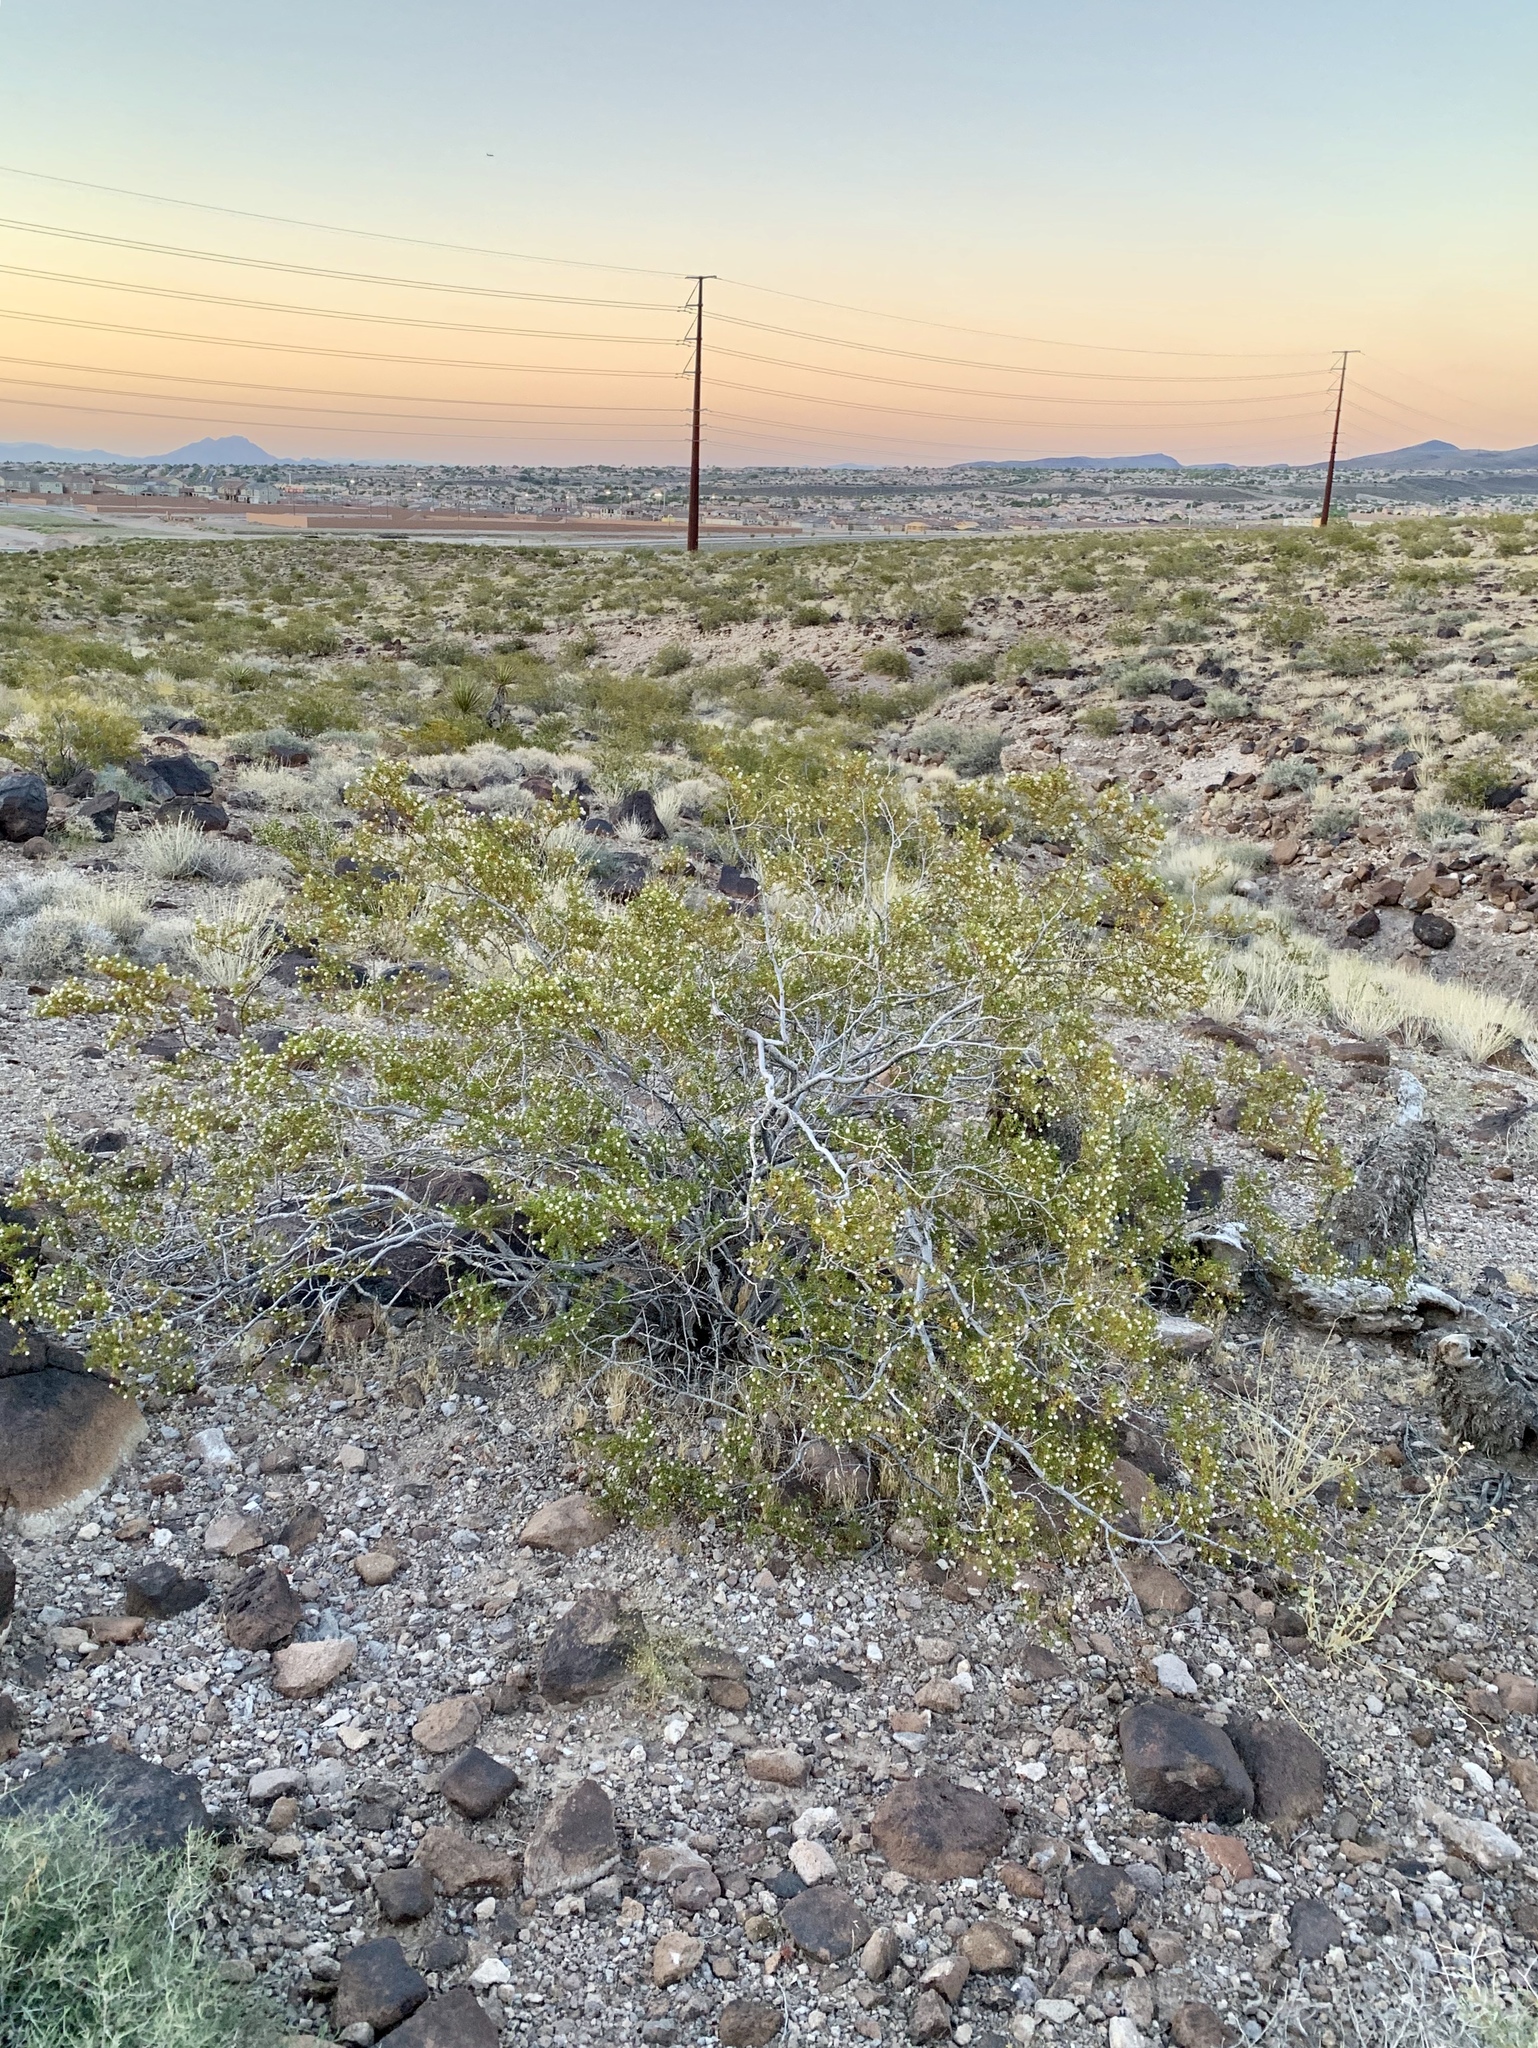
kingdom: Plantae
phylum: Tracheophyta
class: Magnoliopsida
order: Zygophyllales
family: Zygophyllaceae
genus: Larrea
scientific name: Larrea tridentata
